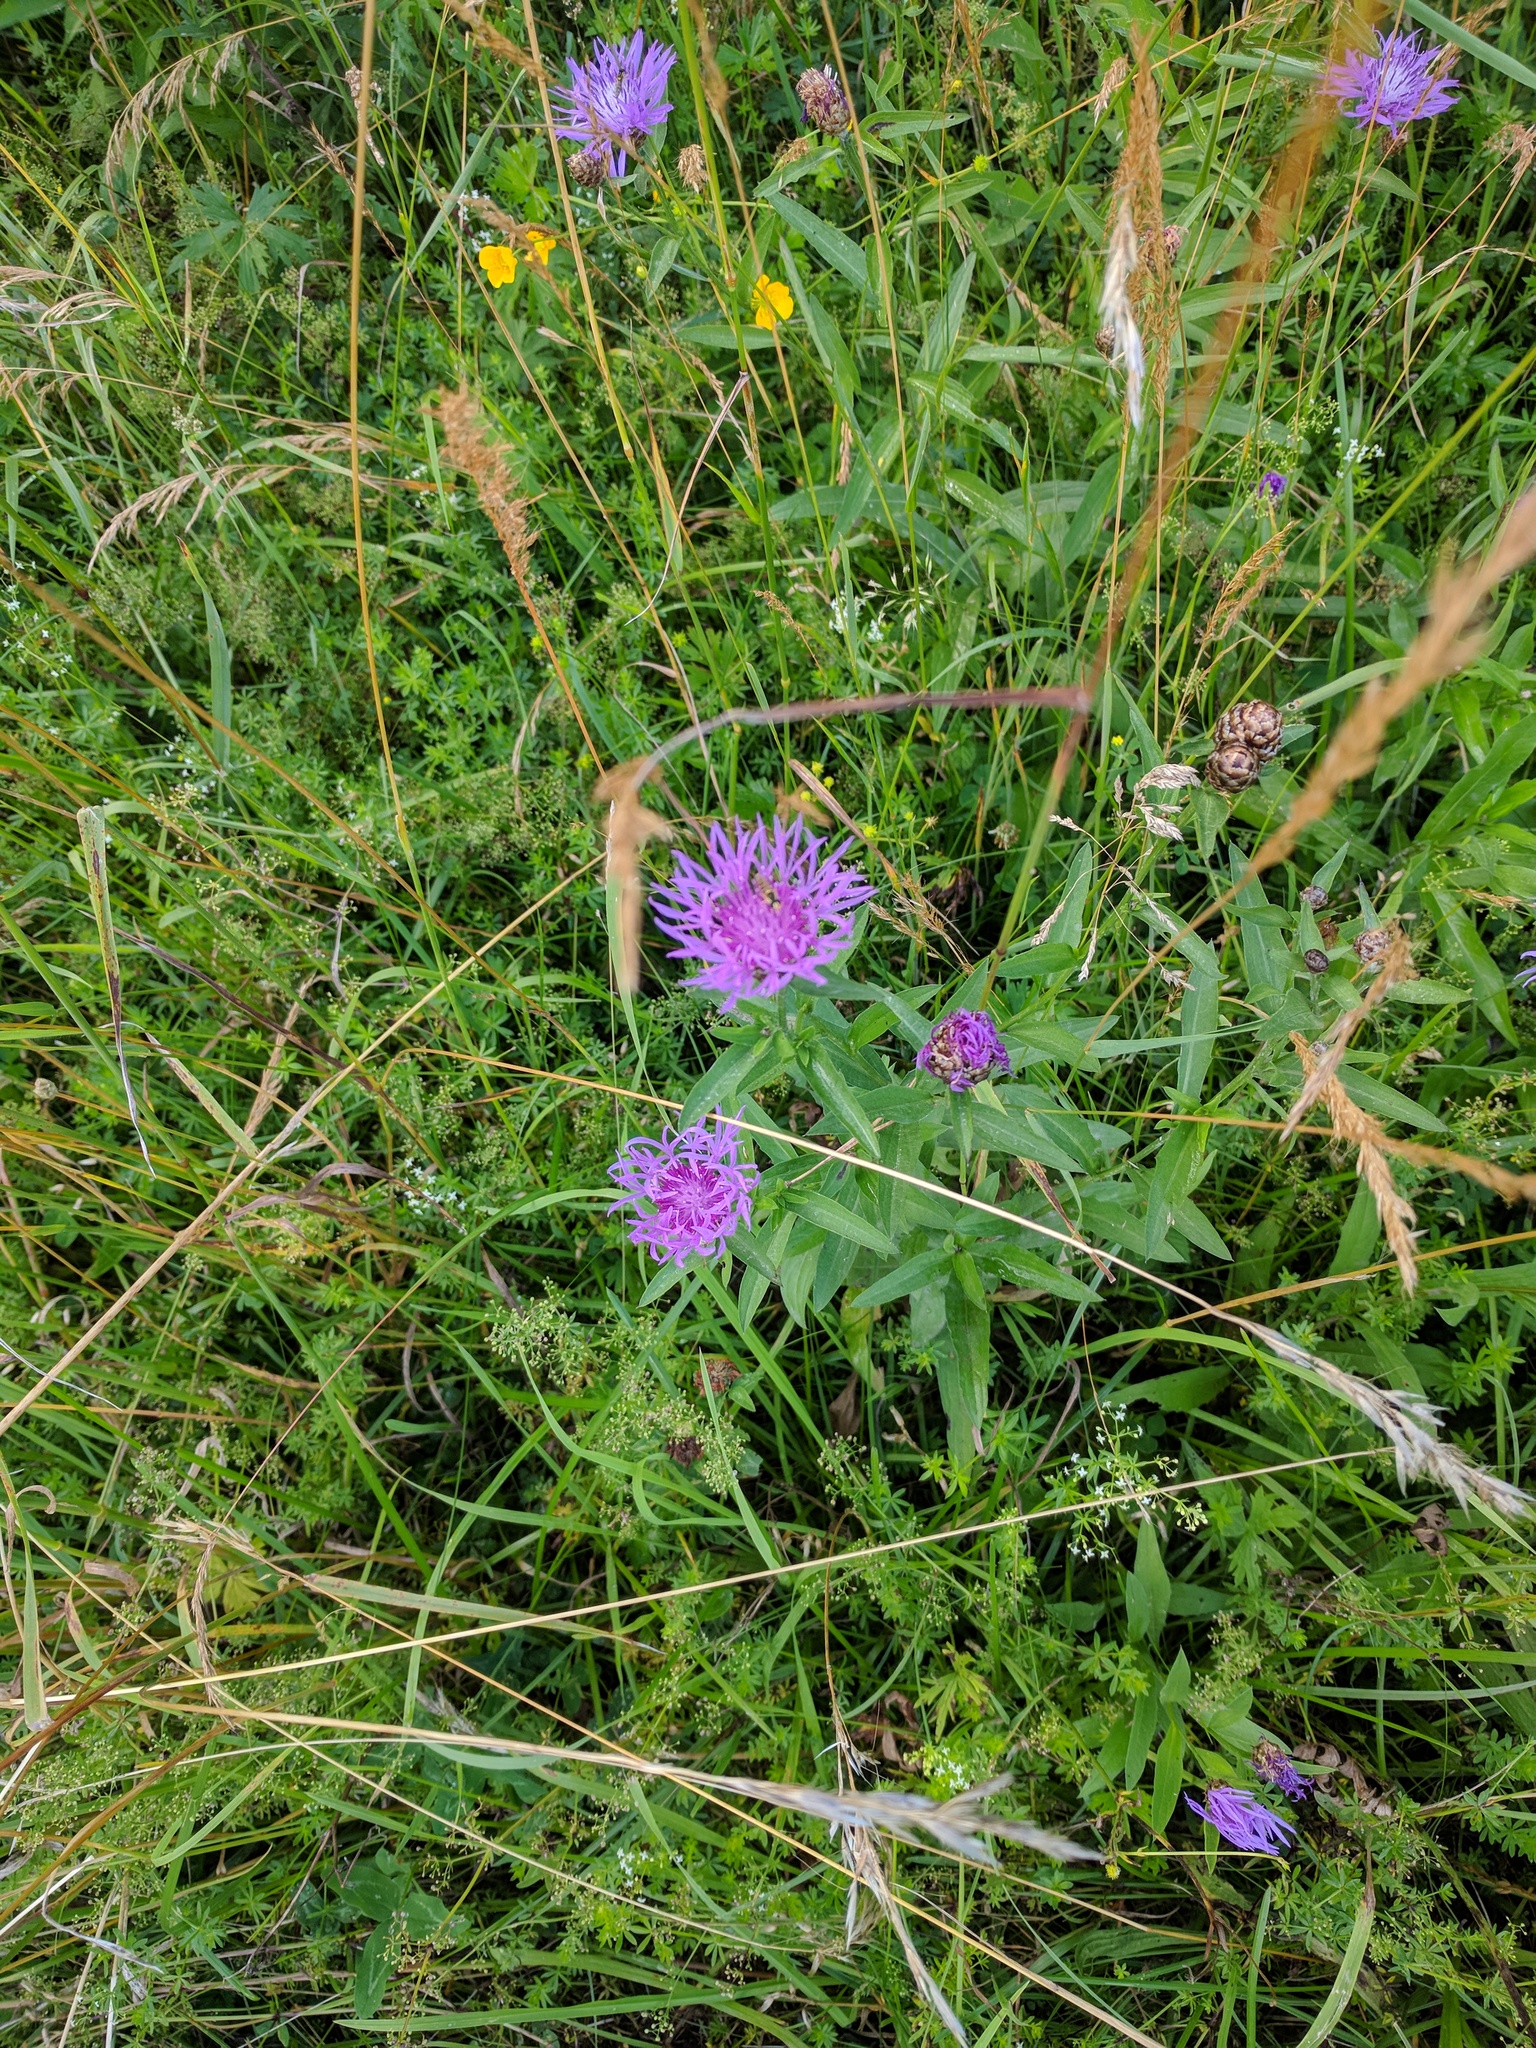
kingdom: Plantae
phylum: Tracheophyta
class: Magnoliopsida
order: Asterales
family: Asteraceae
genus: Centaurea
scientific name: Centaurea jacea
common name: Brown knapweed
